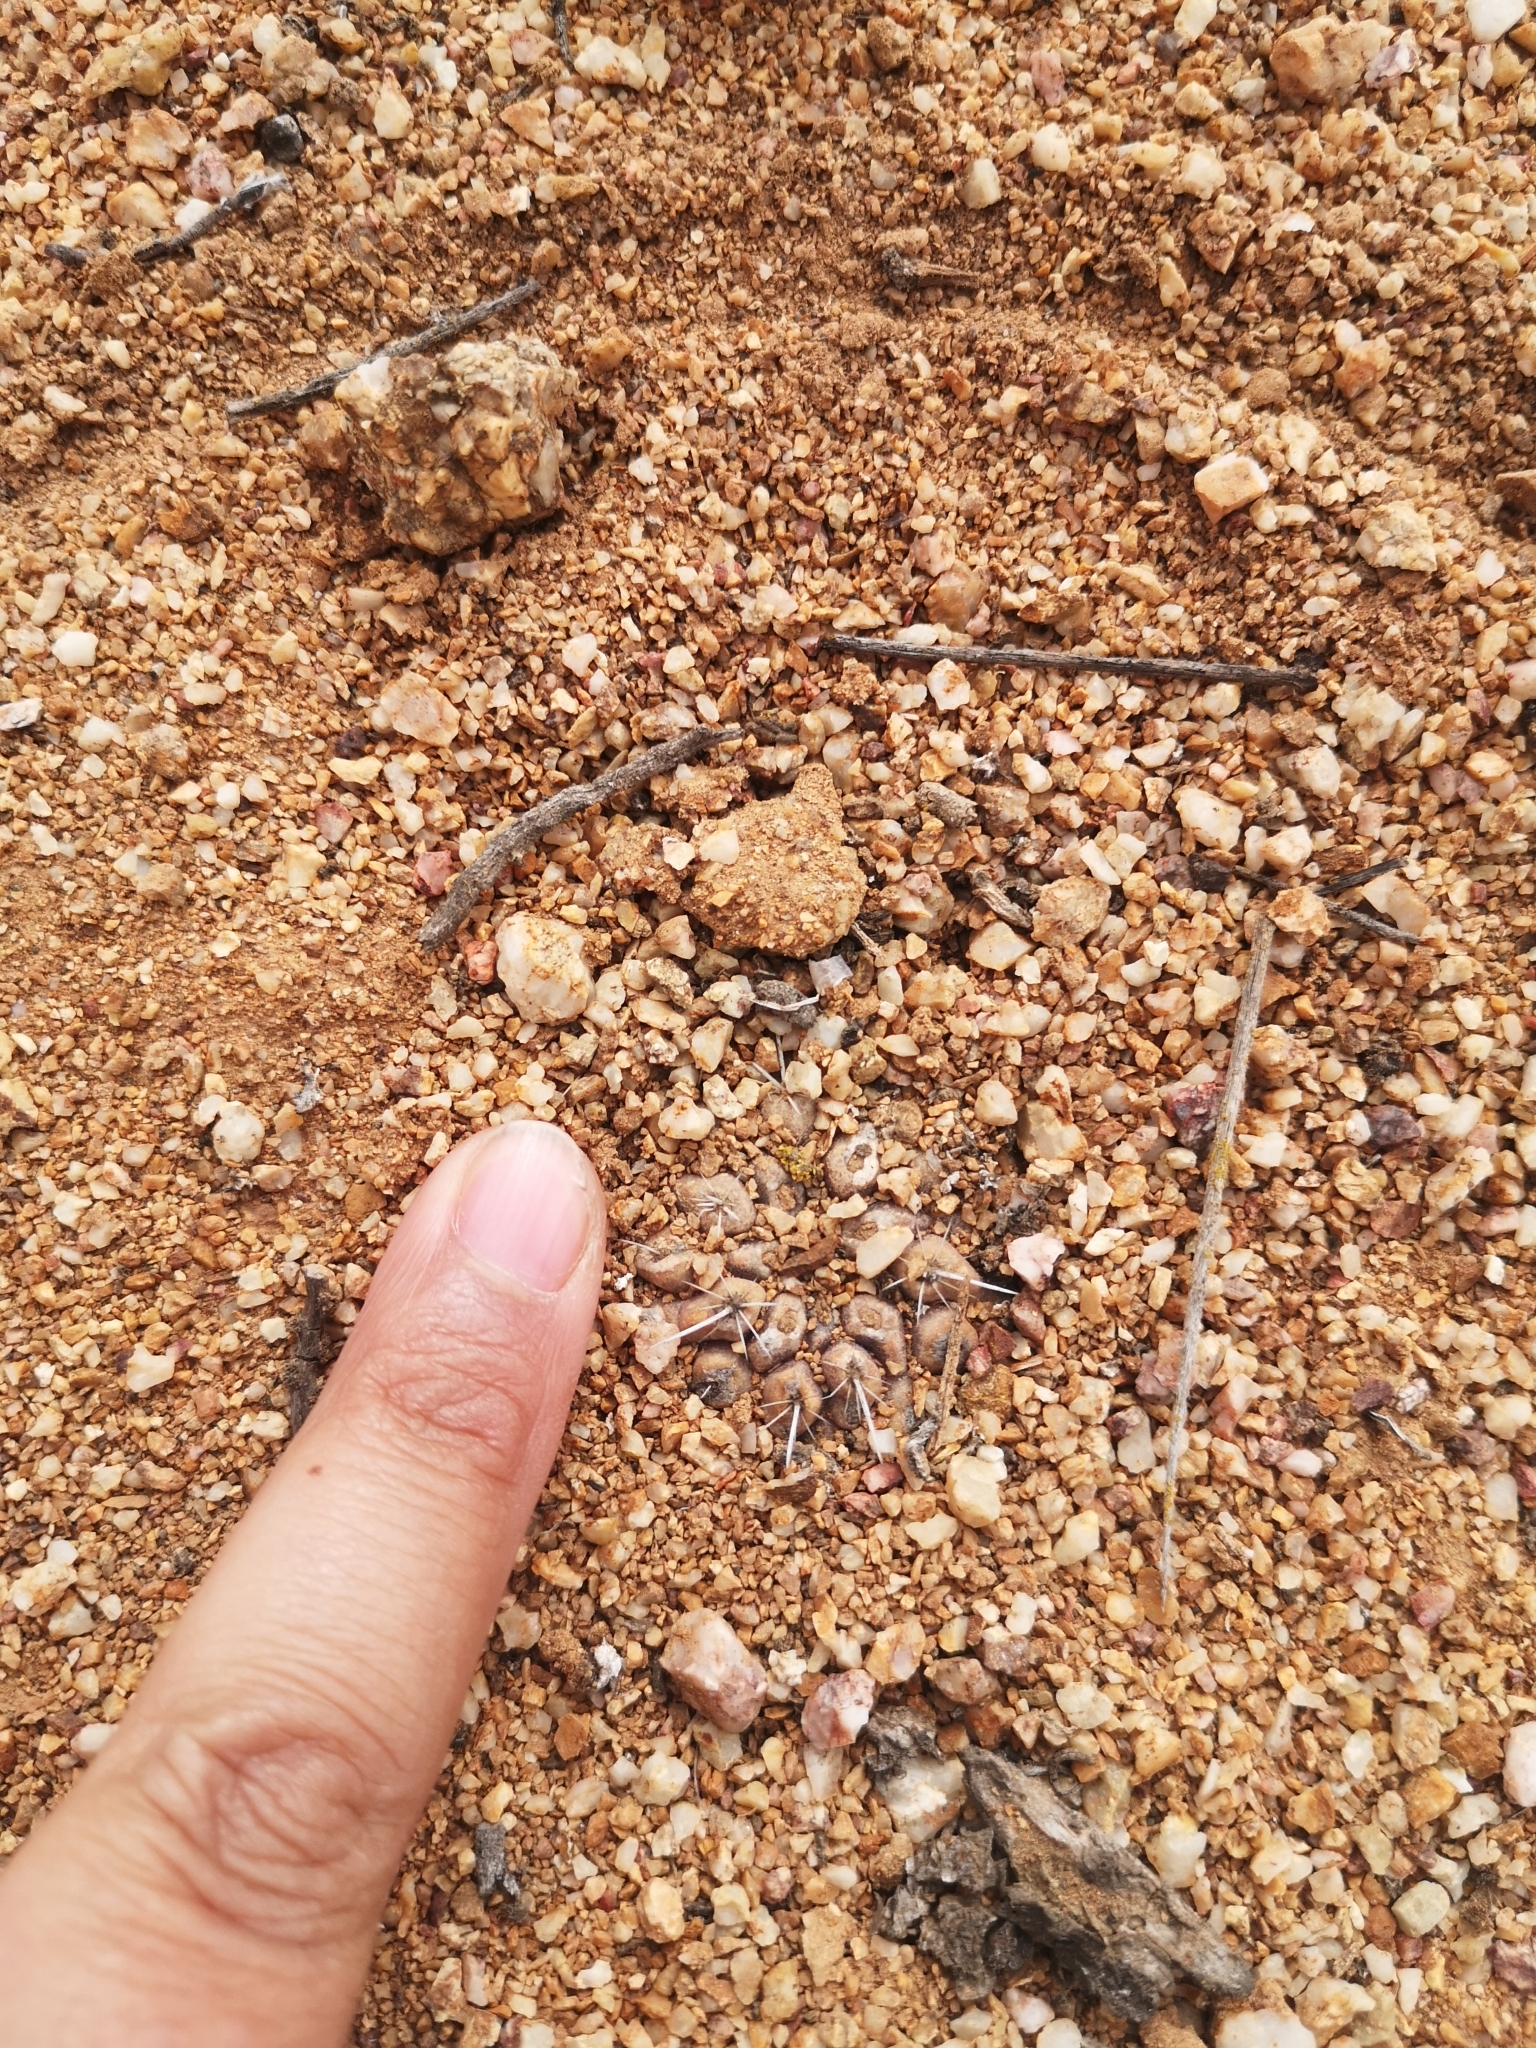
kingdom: Plantae
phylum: Tracheophyta
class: Magnoliopsida
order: Caryophyllales
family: Cactaceae
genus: Copiapoa
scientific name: Copiapoa humilis
